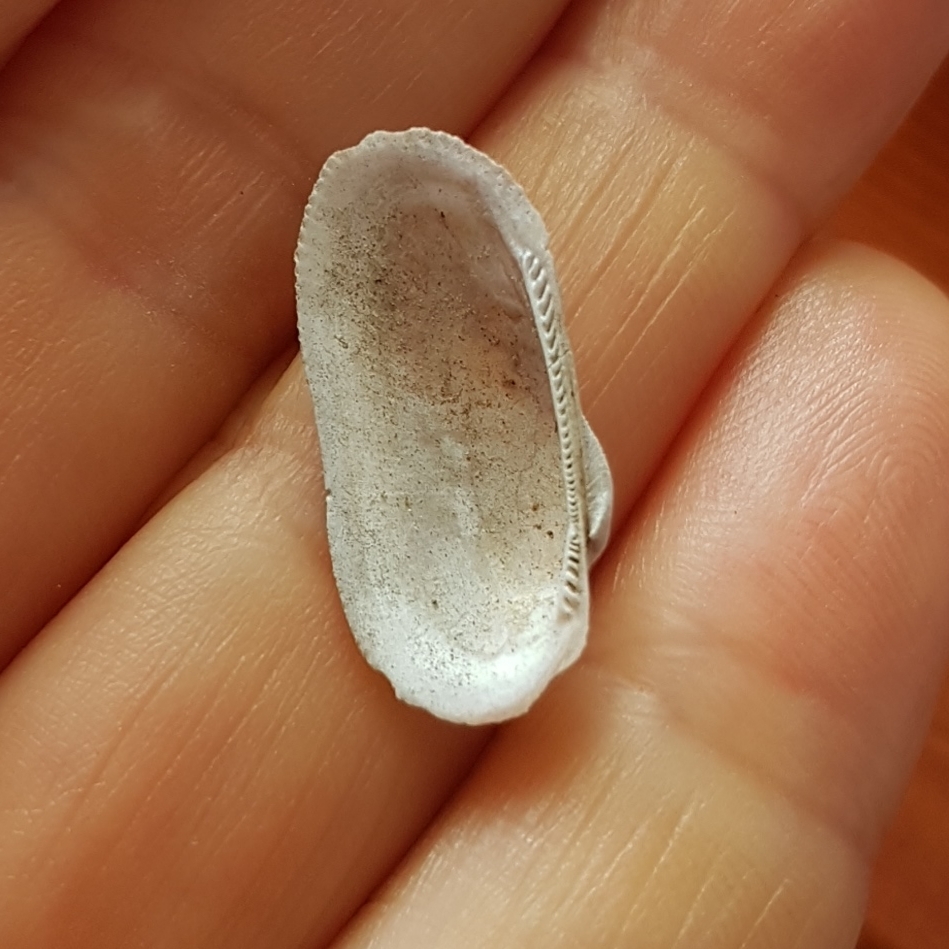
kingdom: Animalia
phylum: Mollusca
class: Bivalvia
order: Arcida
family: Arcidae
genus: Barbatia
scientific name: Barbatia barbata
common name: Bearded ark
